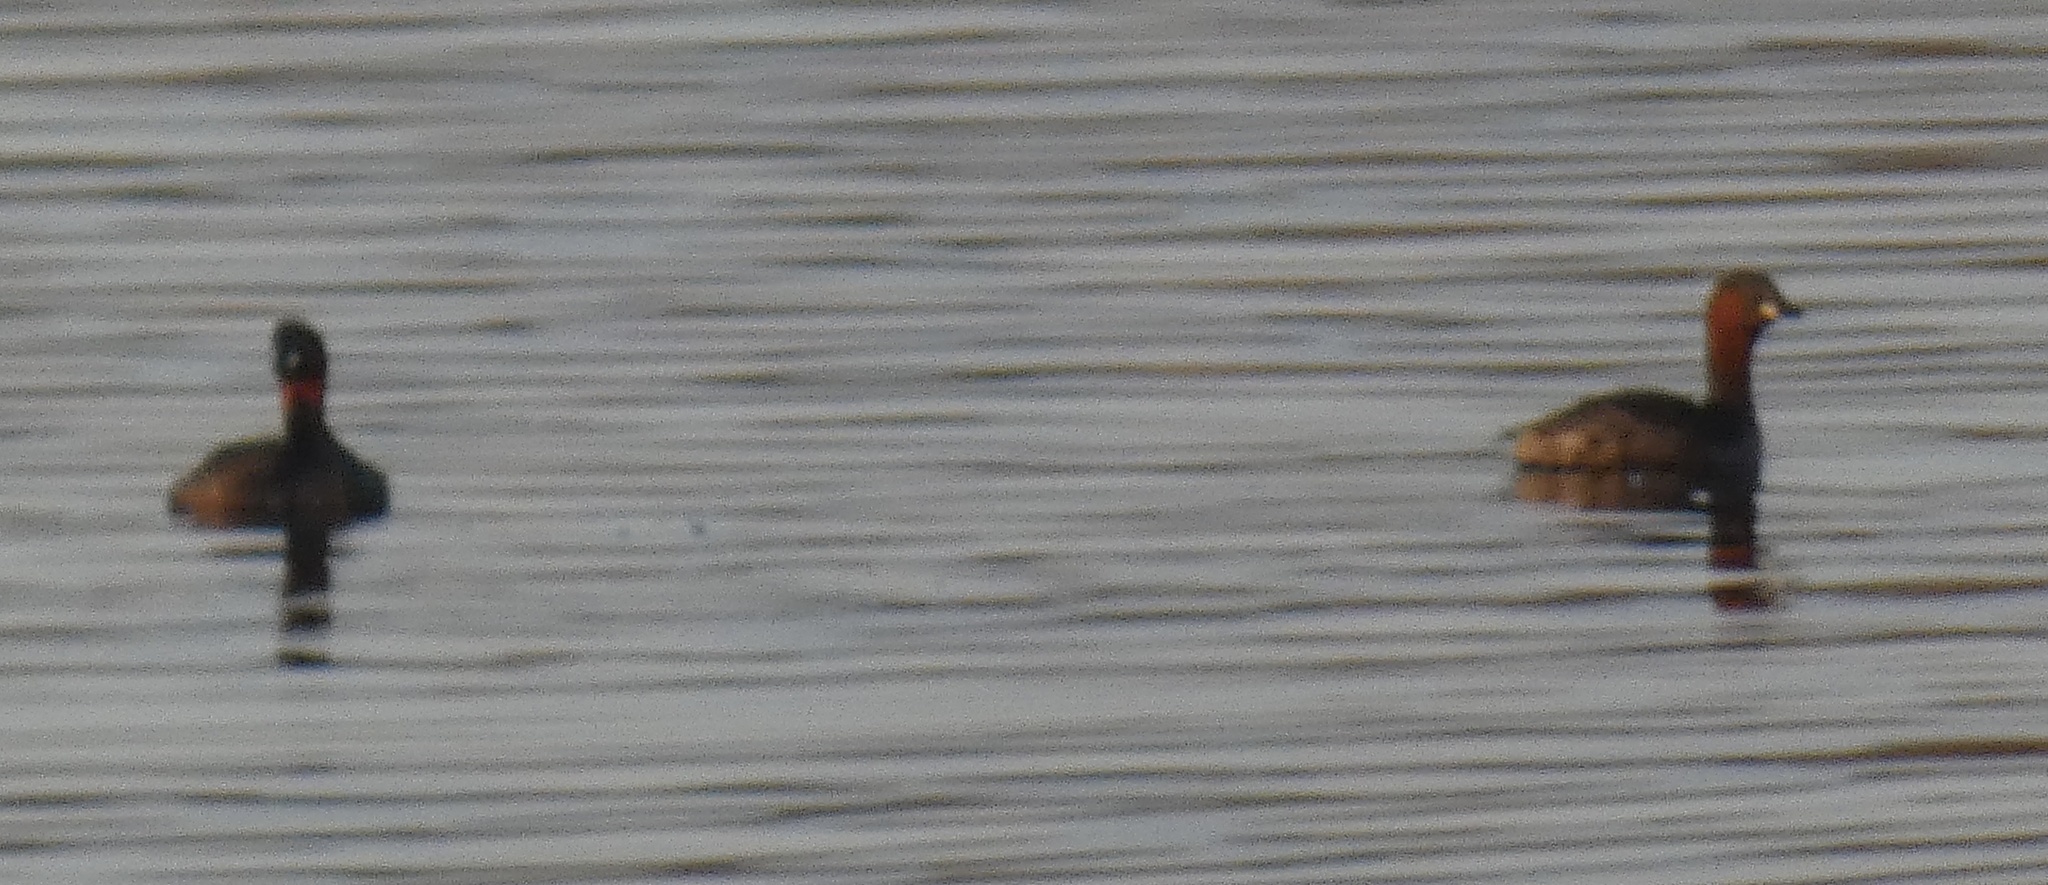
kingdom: Animalia
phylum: Chordata
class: Aves
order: Podicipediformes
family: Podicipedidae
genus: Tachybaptus
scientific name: Tachybaptus ruficollis
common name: Little grebe
